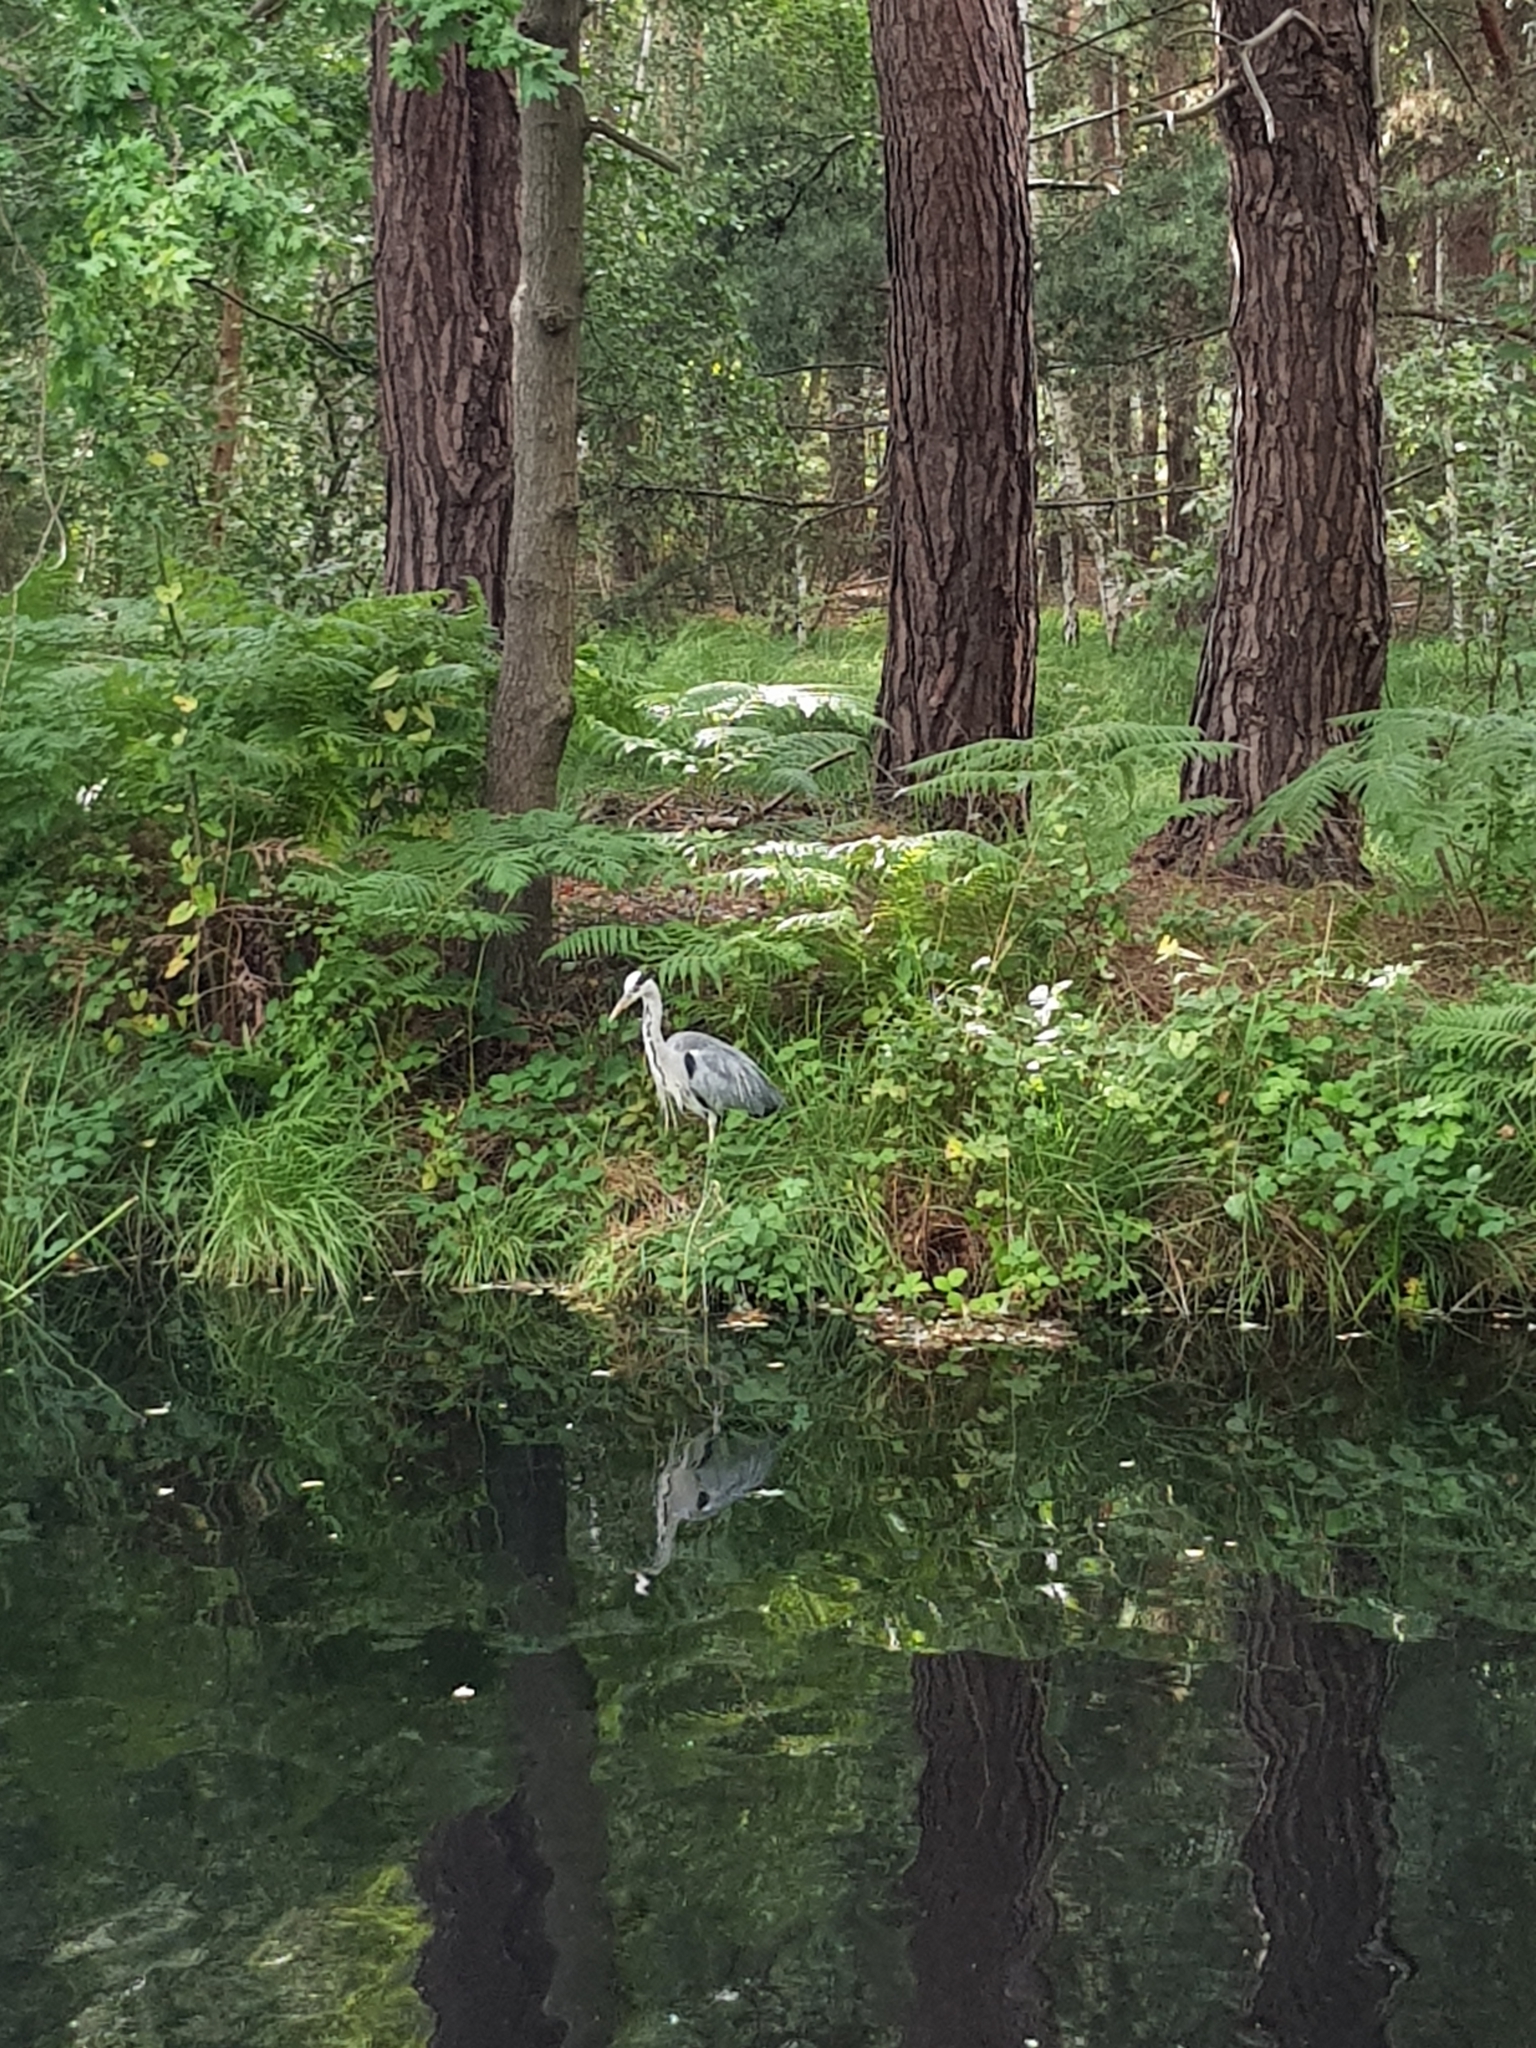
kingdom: Animalia
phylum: Chordata
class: Aves
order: Pelecaniformes
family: Ardeidae
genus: Ardea
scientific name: Ardea cinerea
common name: Grey heron
